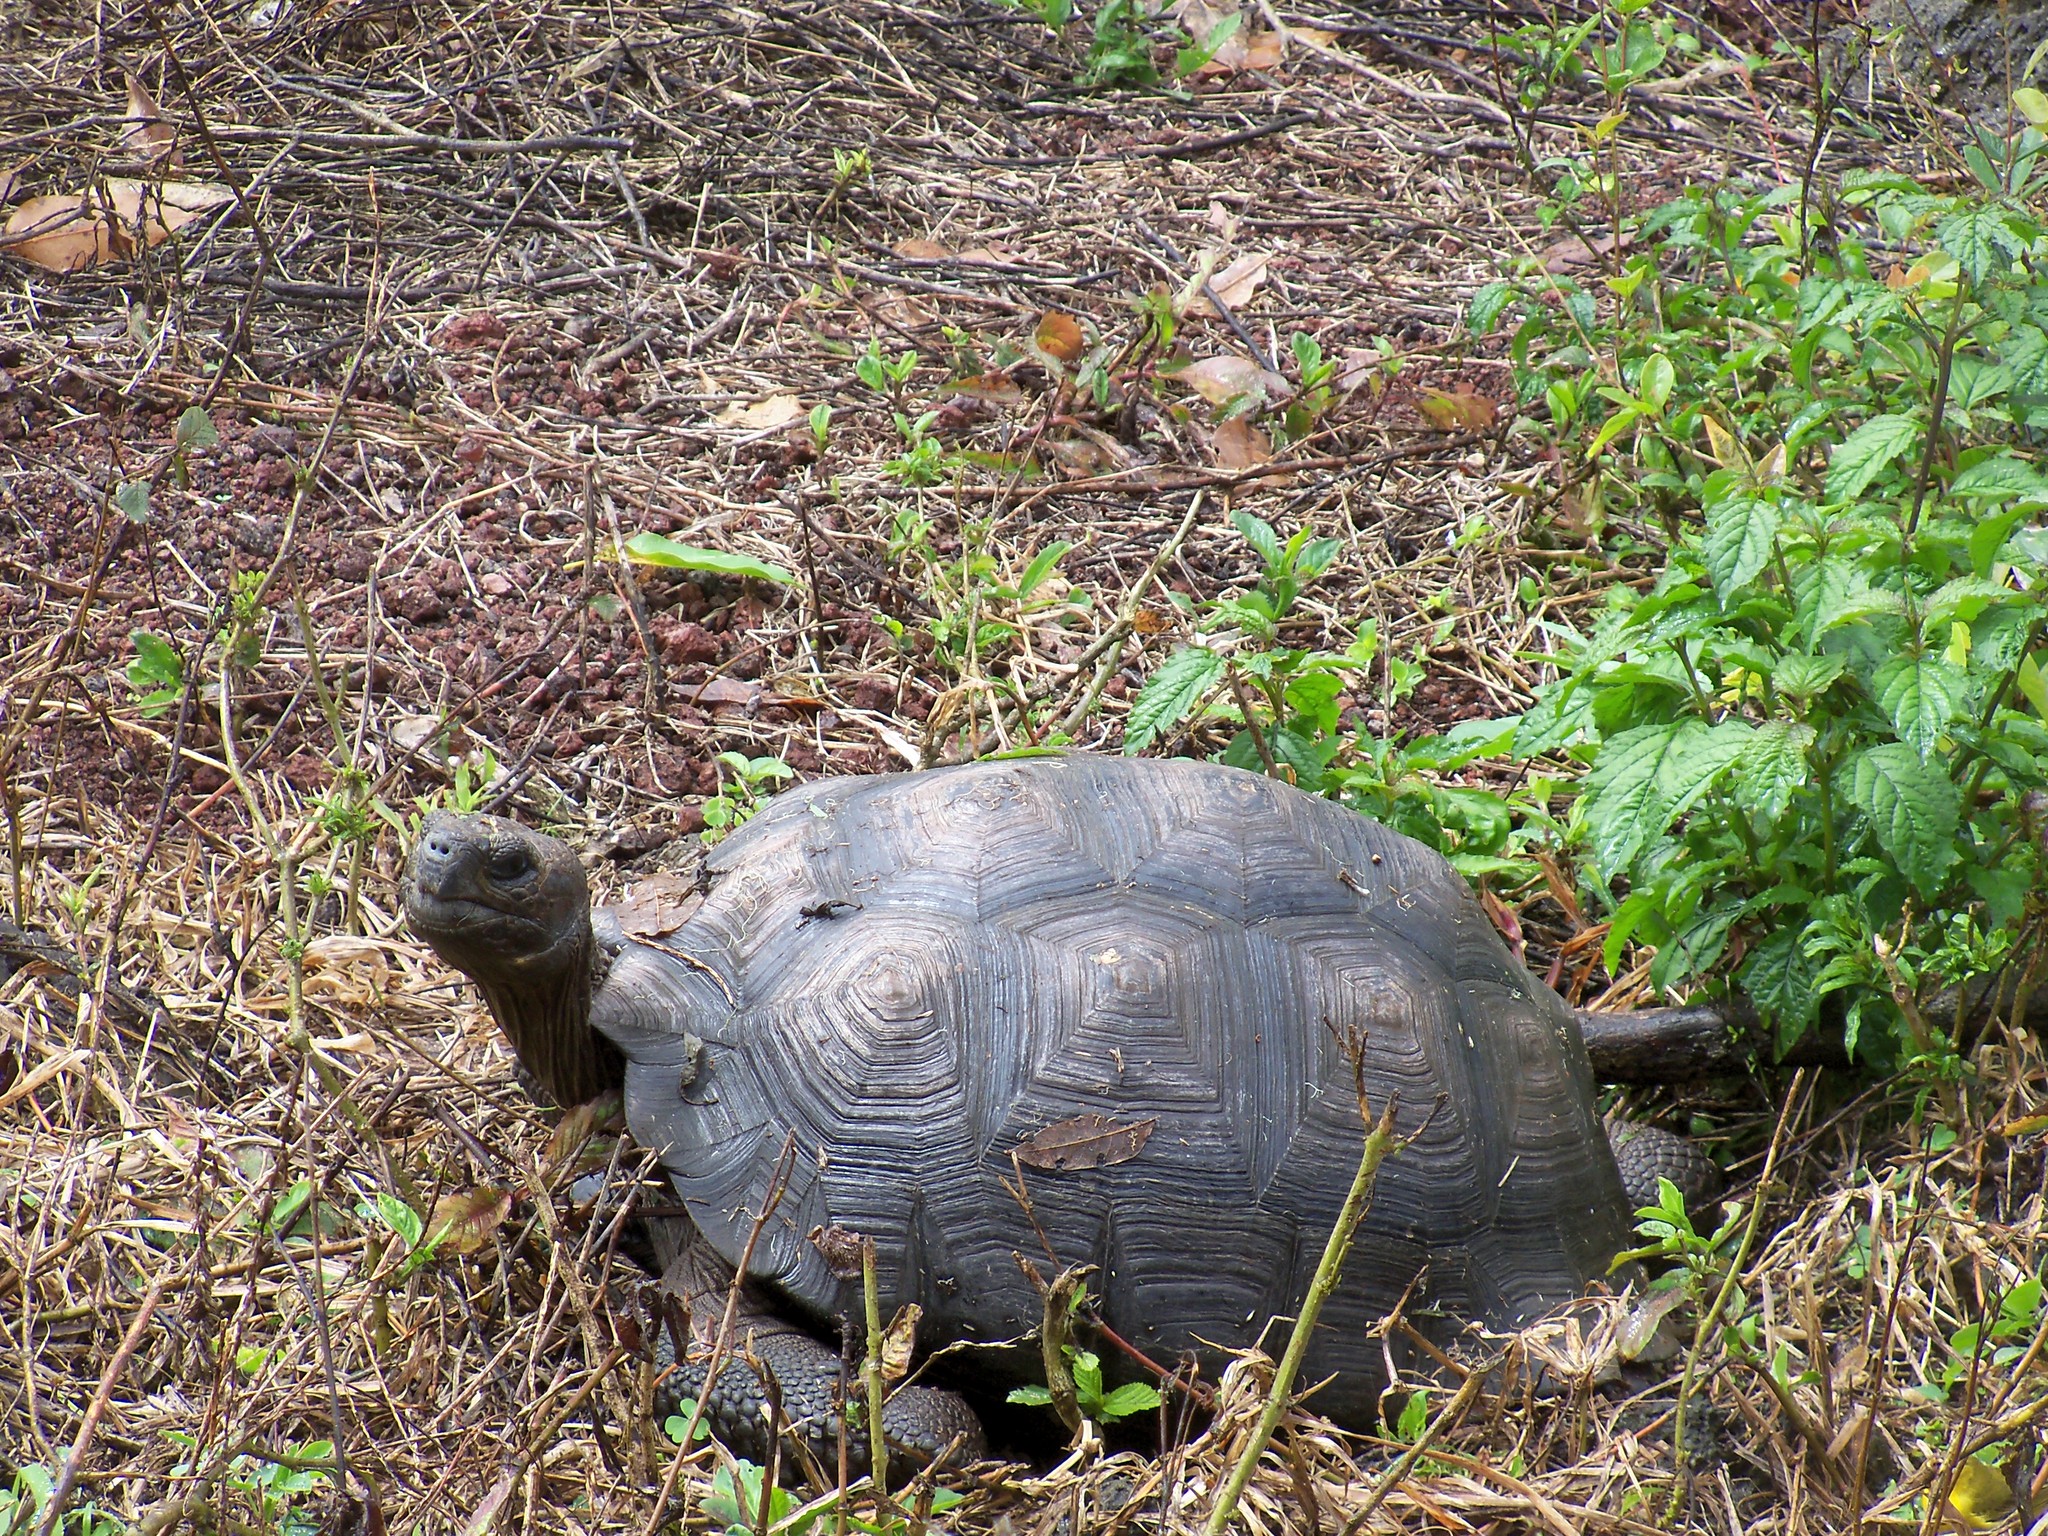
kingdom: Animalia
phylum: Chordata
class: Testudines
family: Testudinidae
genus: Chelonoidis
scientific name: Chelonoidis porteri
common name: Indefatigable island giant tortoise
